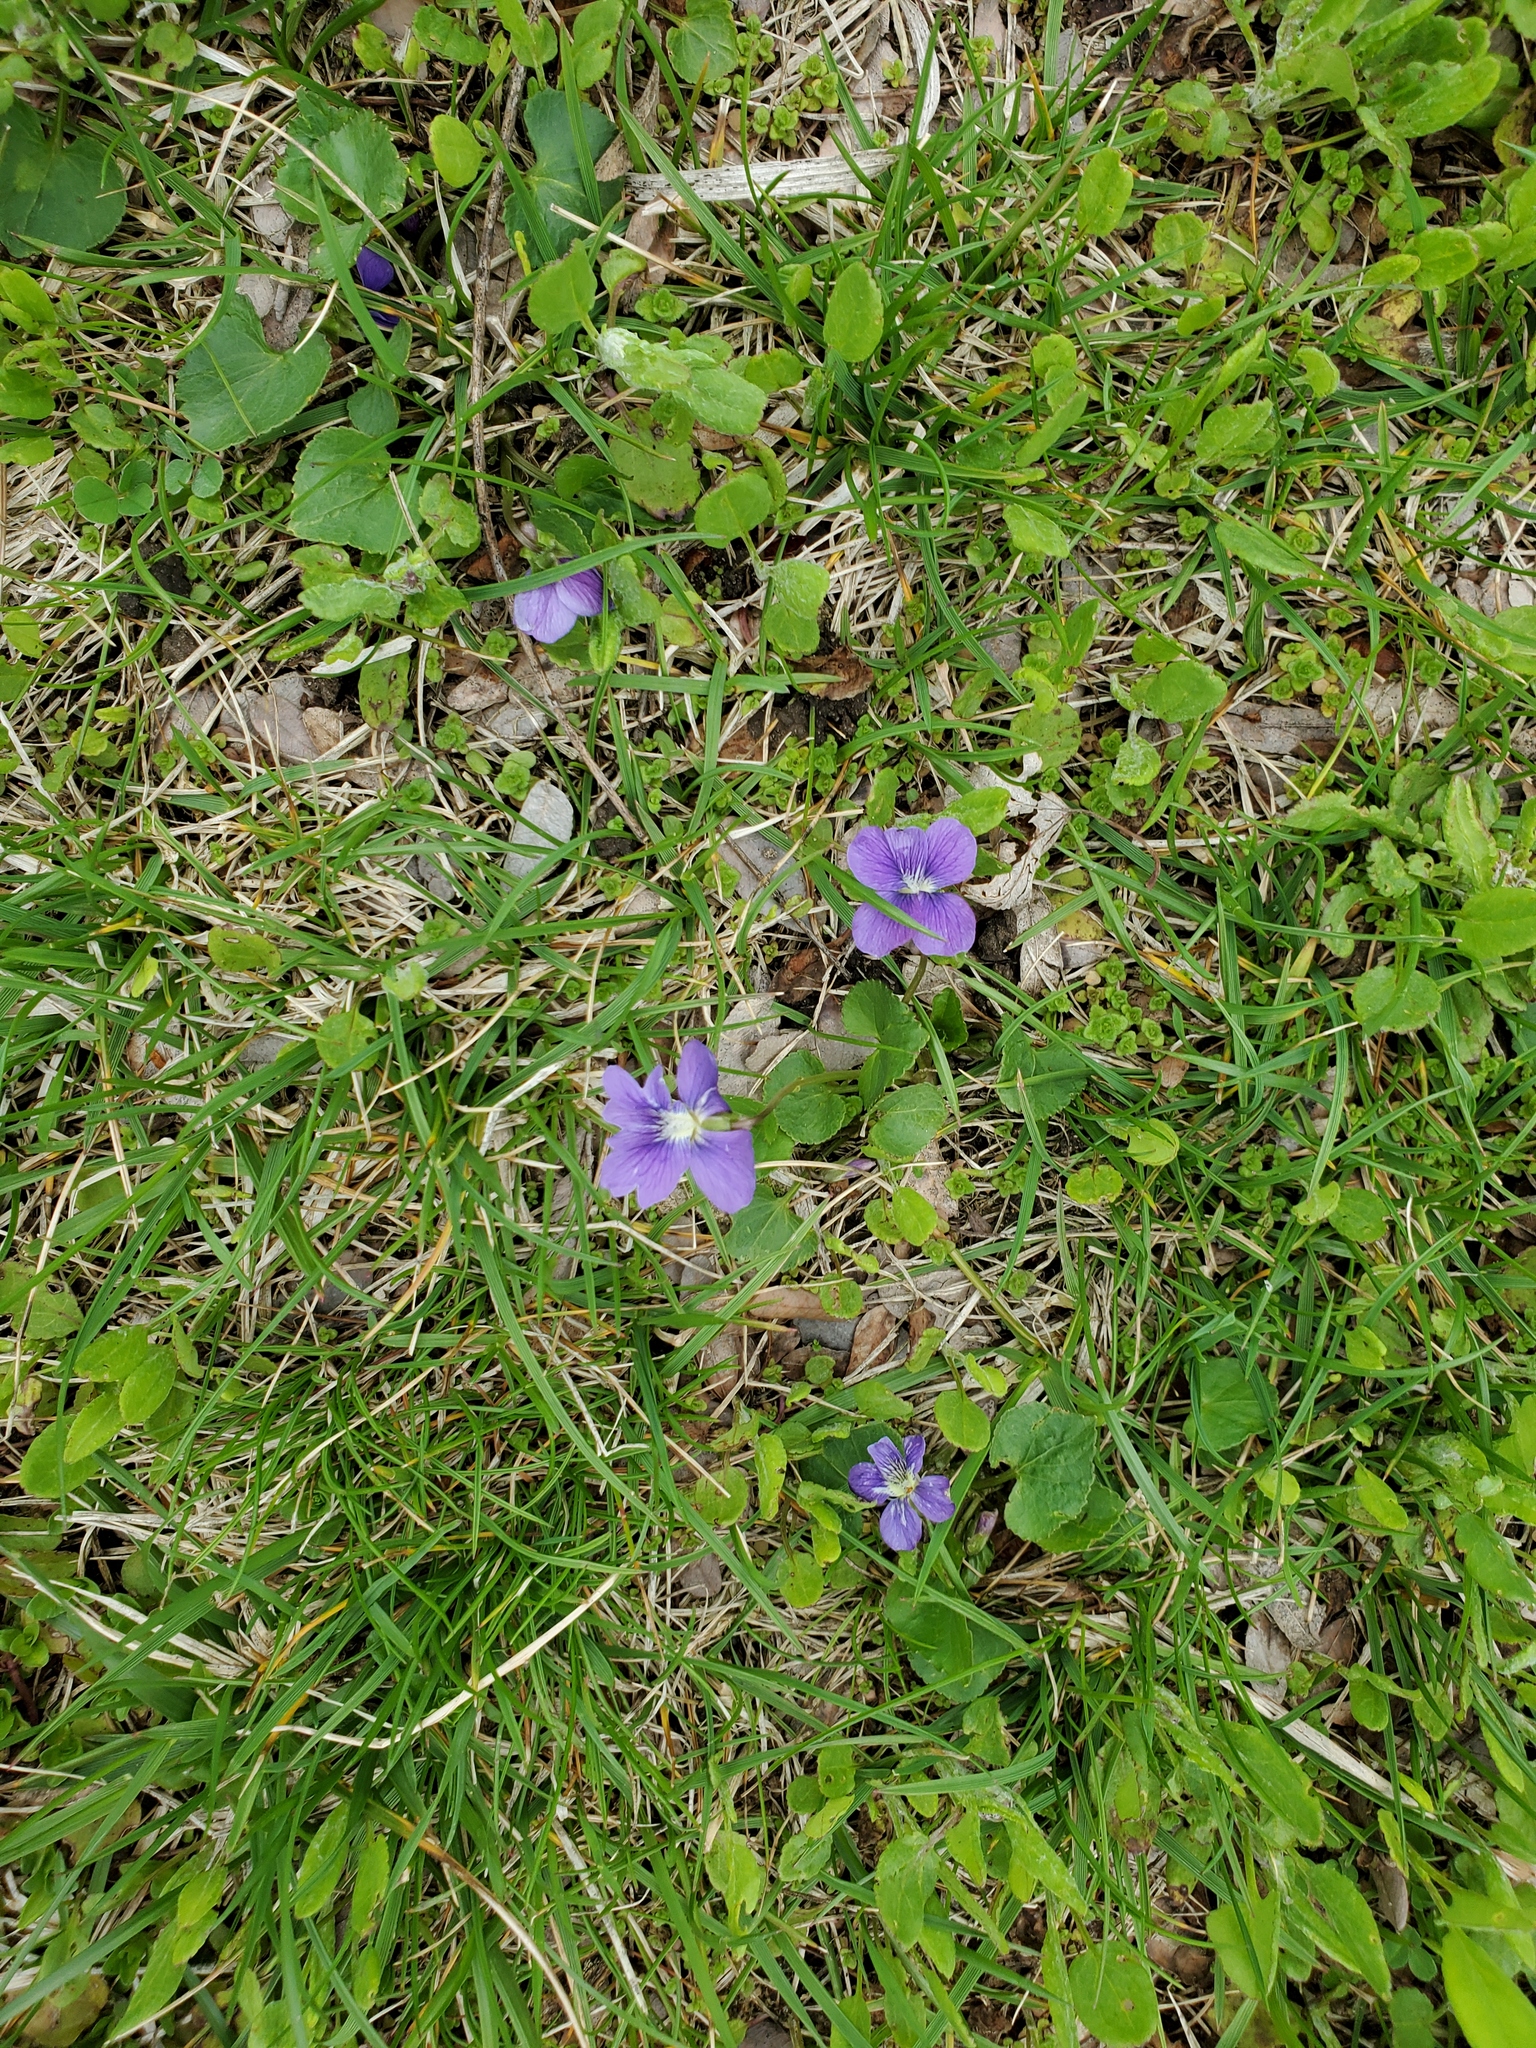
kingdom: Plantae
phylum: Tracheophyta
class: Magnoliopsida
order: Malpighiales
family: Violaceae
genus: Viola
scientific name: Viola sororia
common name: Dooryard violet
